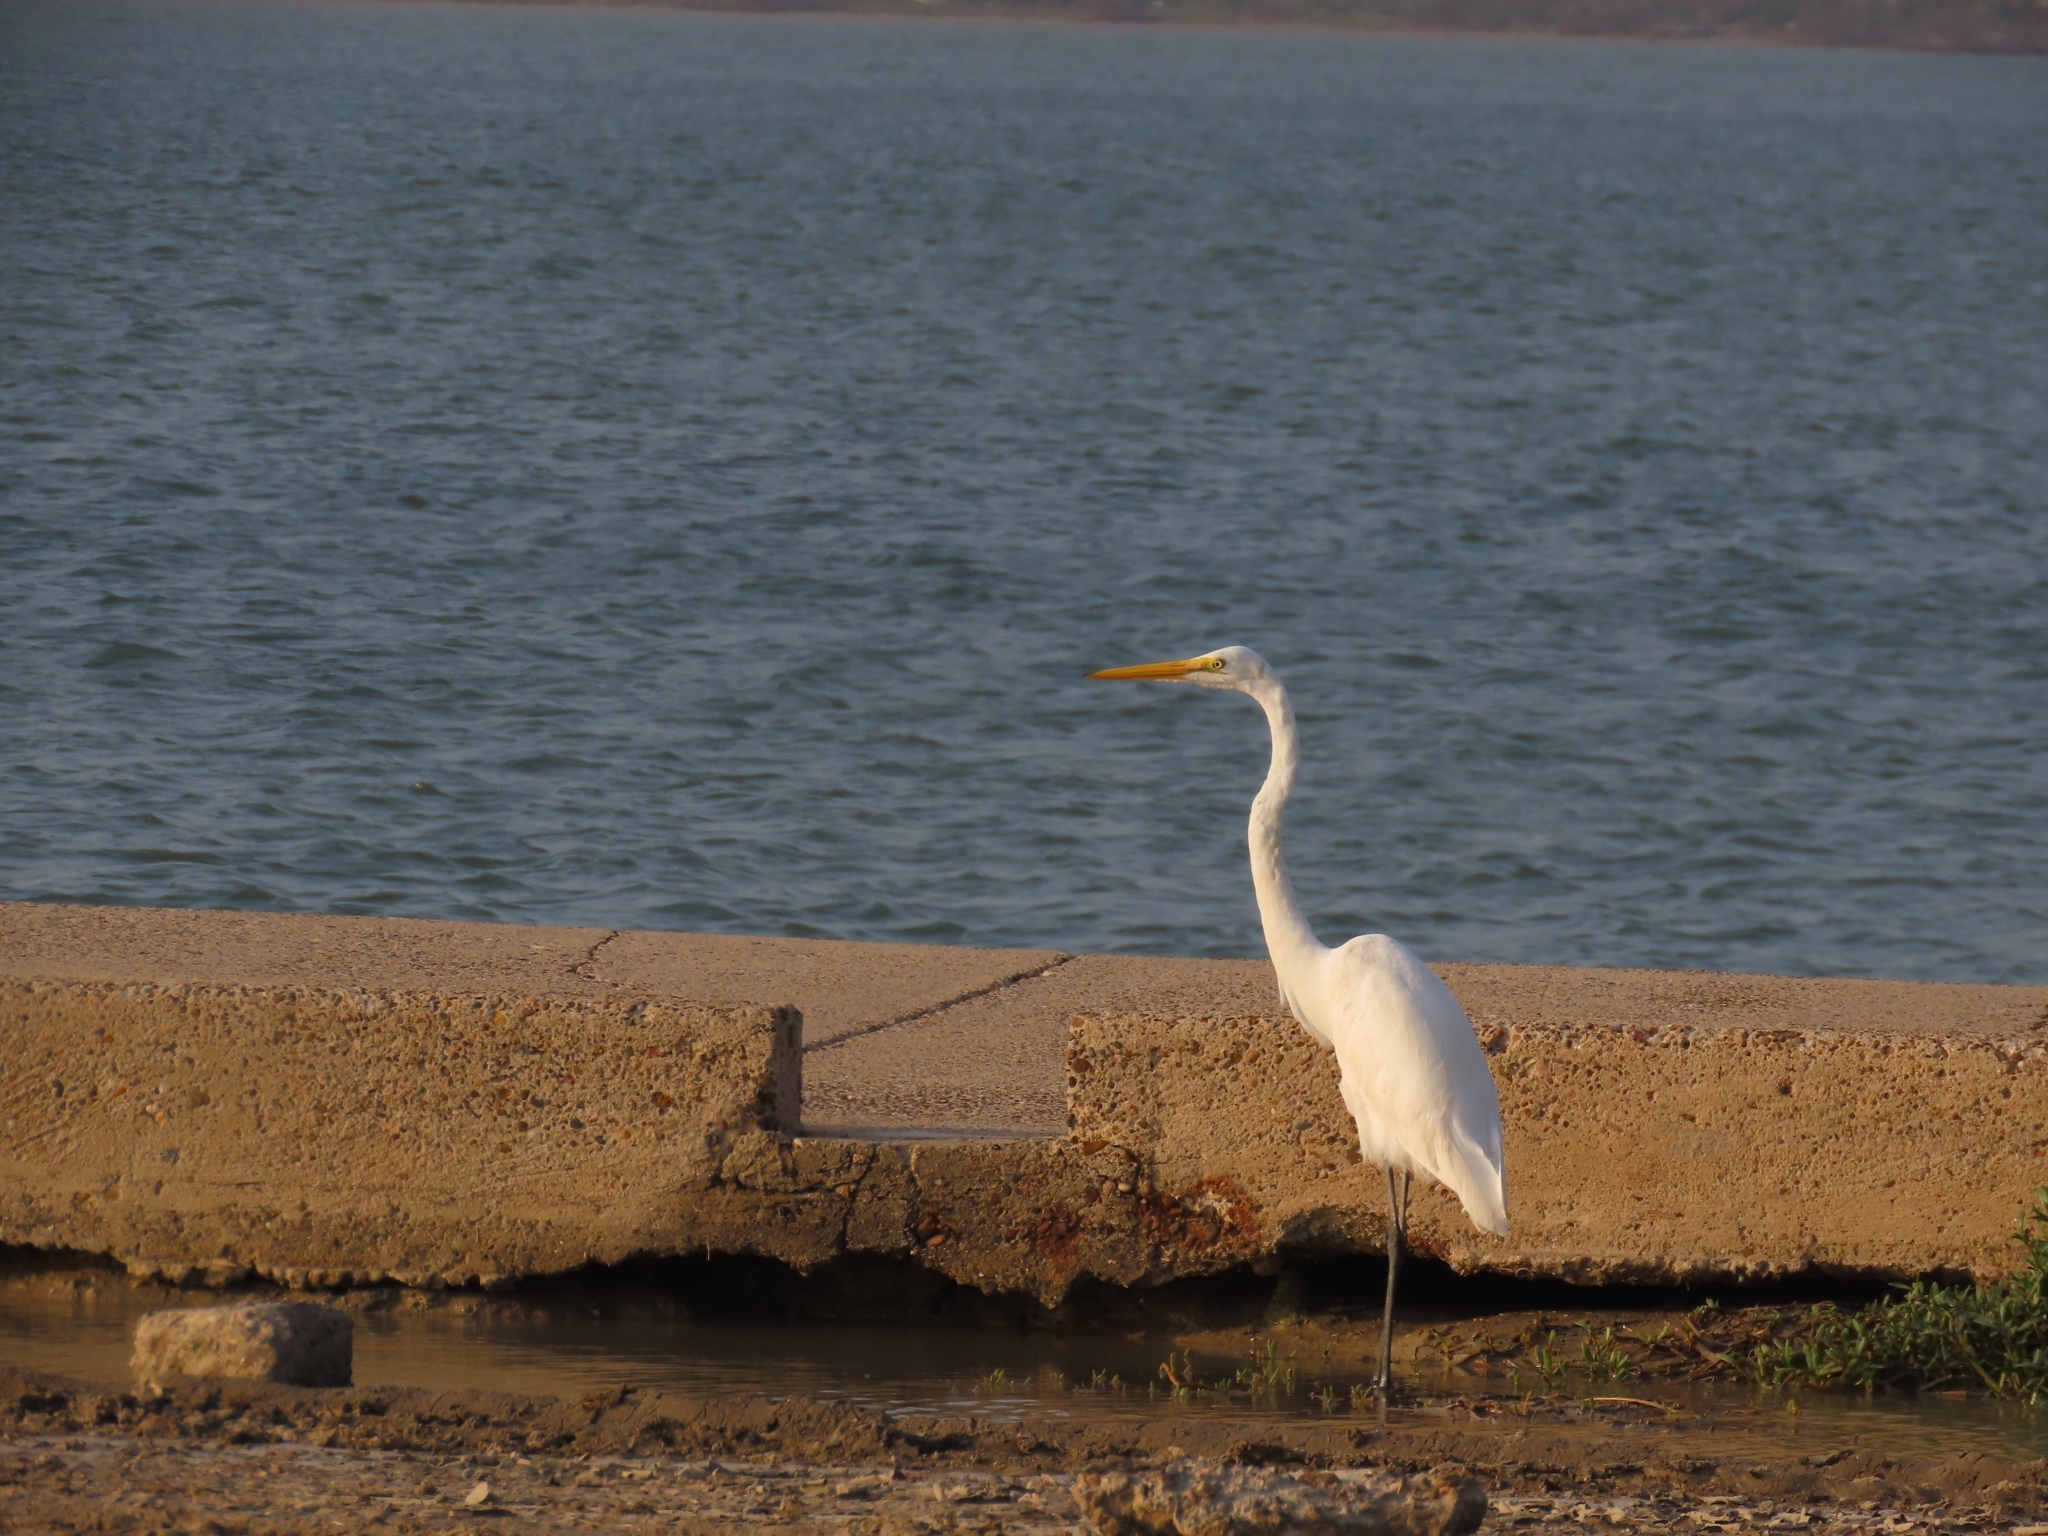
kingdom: Animalia
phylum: Chordata
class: Aves
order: Pelecaniformes
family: Ardeidae
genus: Ardea
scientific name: Ardea alba
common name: Great egret
